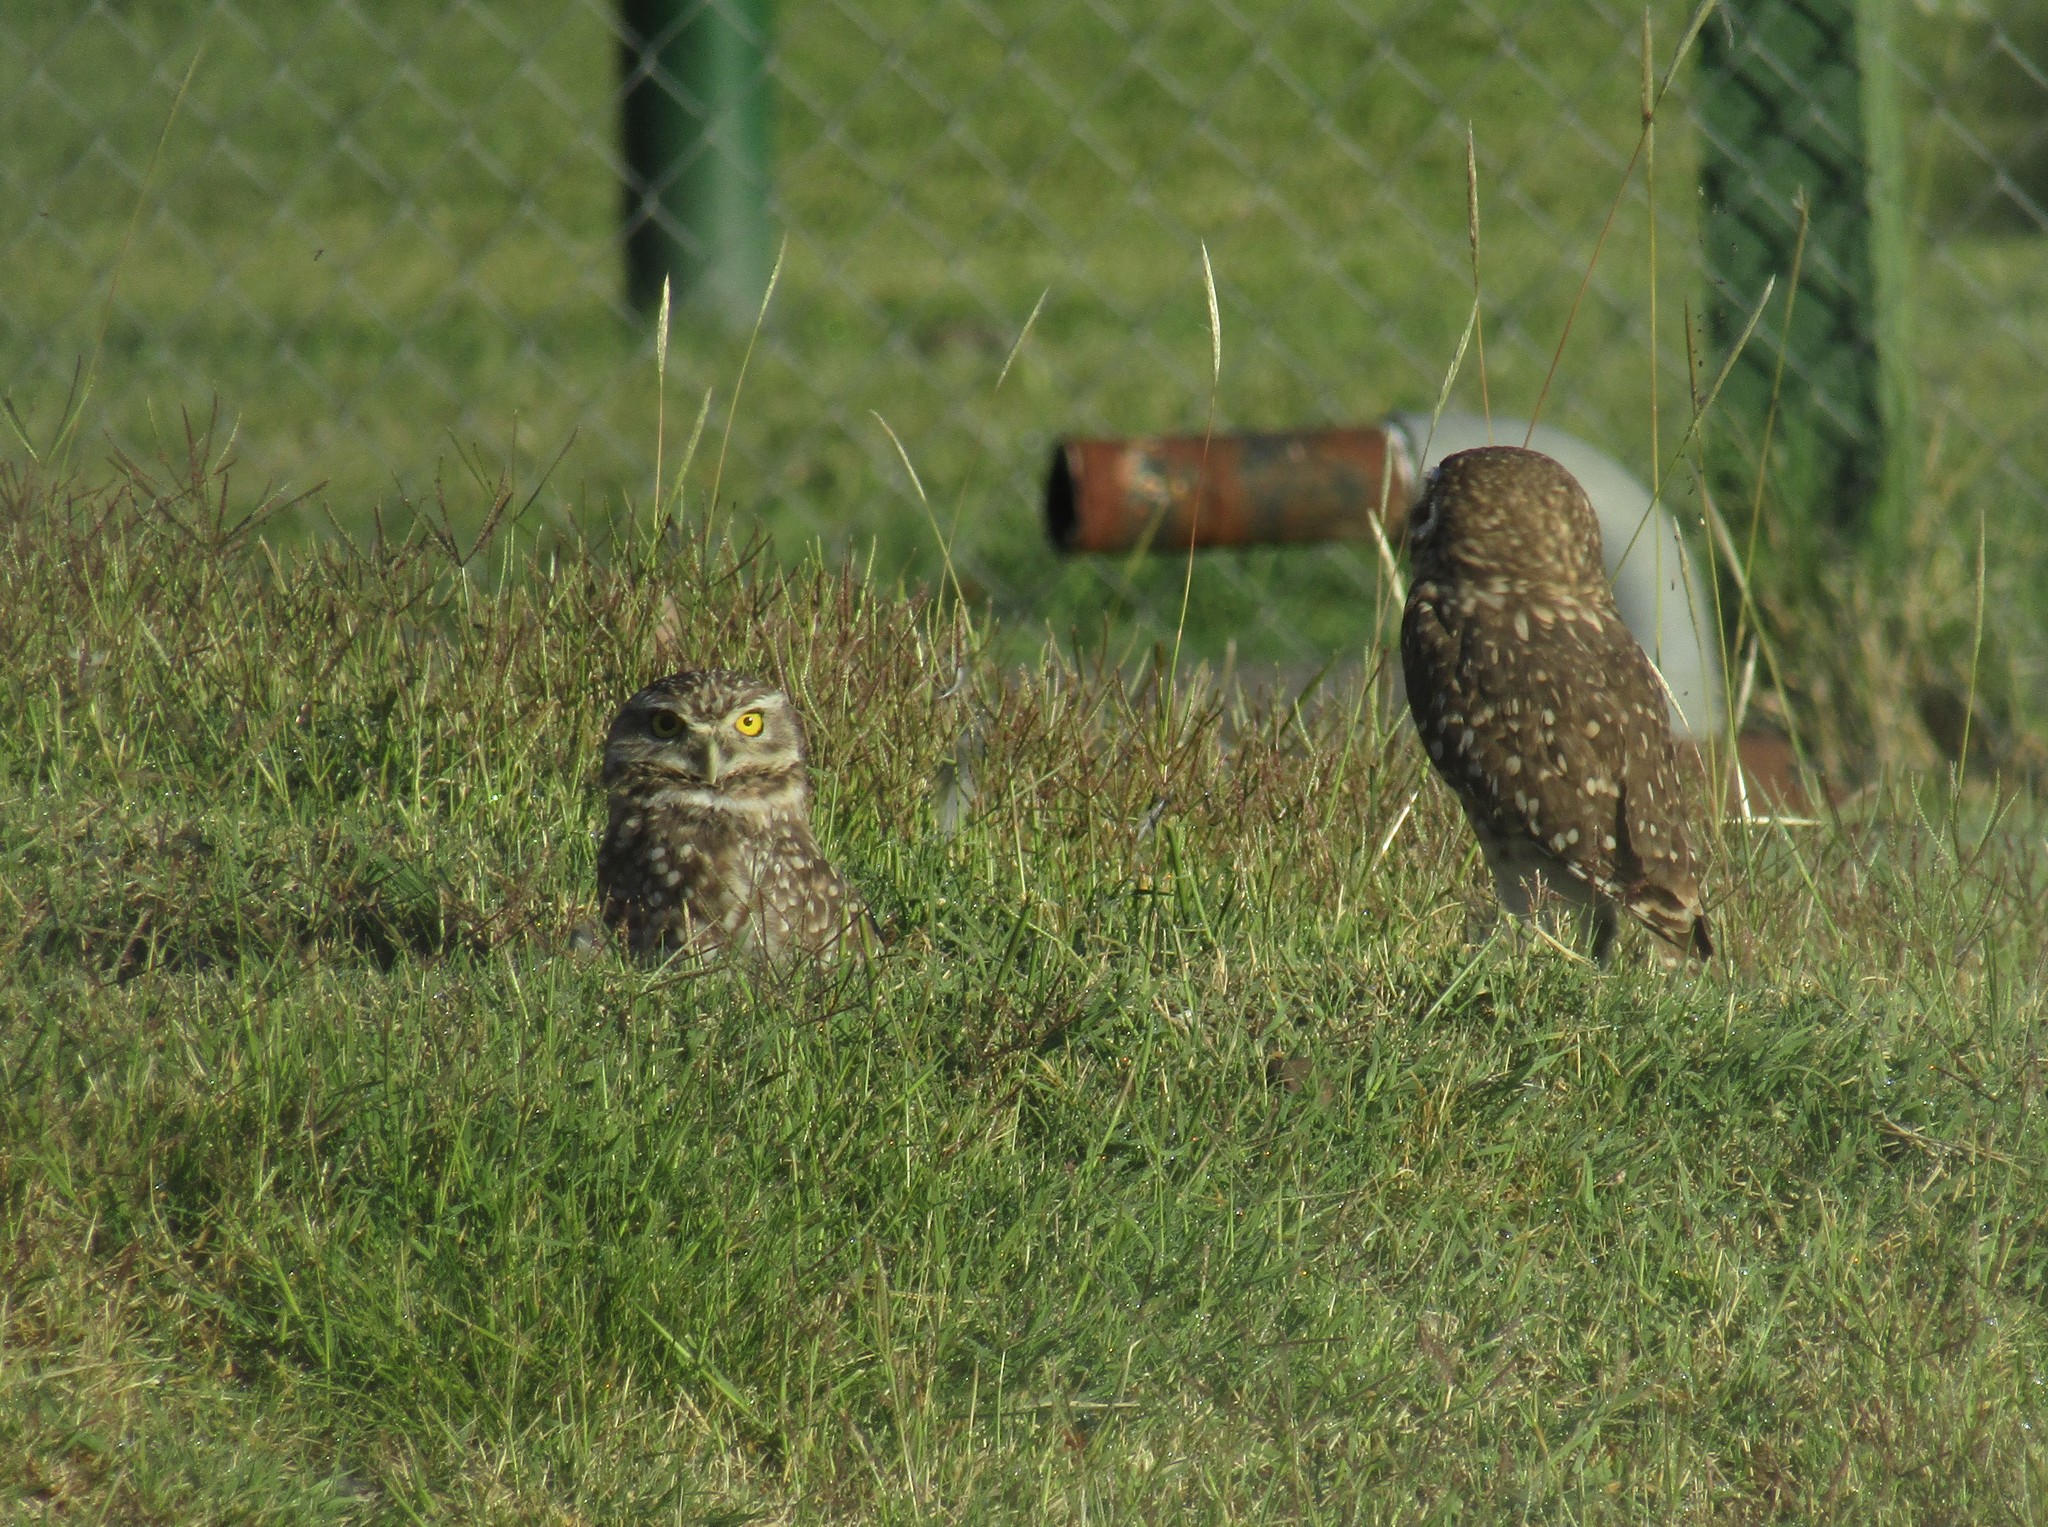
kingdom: Animalia
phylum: Chordata
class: Aves
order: Strigiformes
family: Strigidae
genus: Athene
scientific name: Athene cunicularia
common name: Burrowing owl
